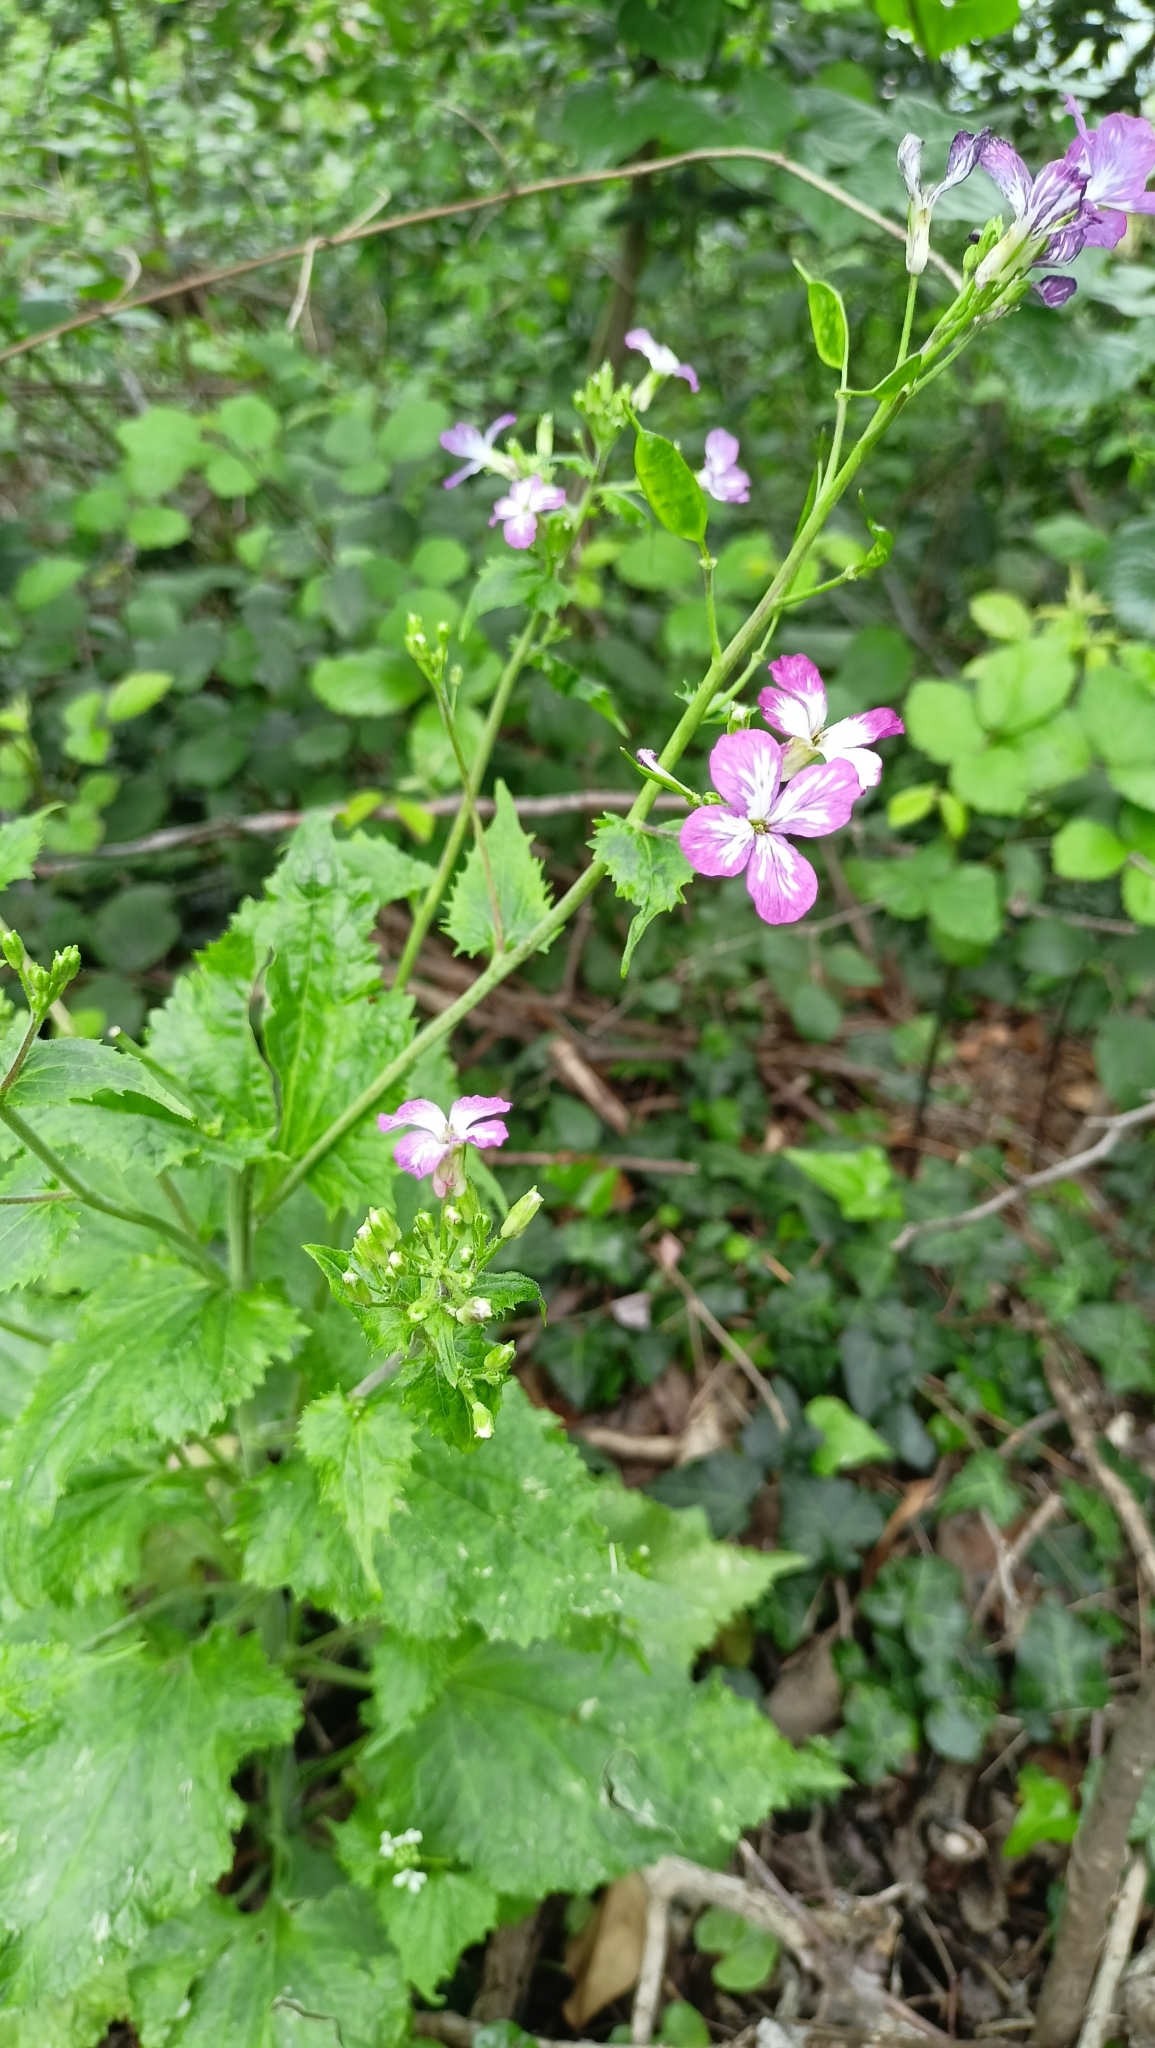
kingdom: Plantae
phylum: Tracheophyta
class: Magnoliopsida
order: Brassicales
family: Brassicaceae
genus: Lunaria
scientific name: Lunaria annua
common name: Honesty
